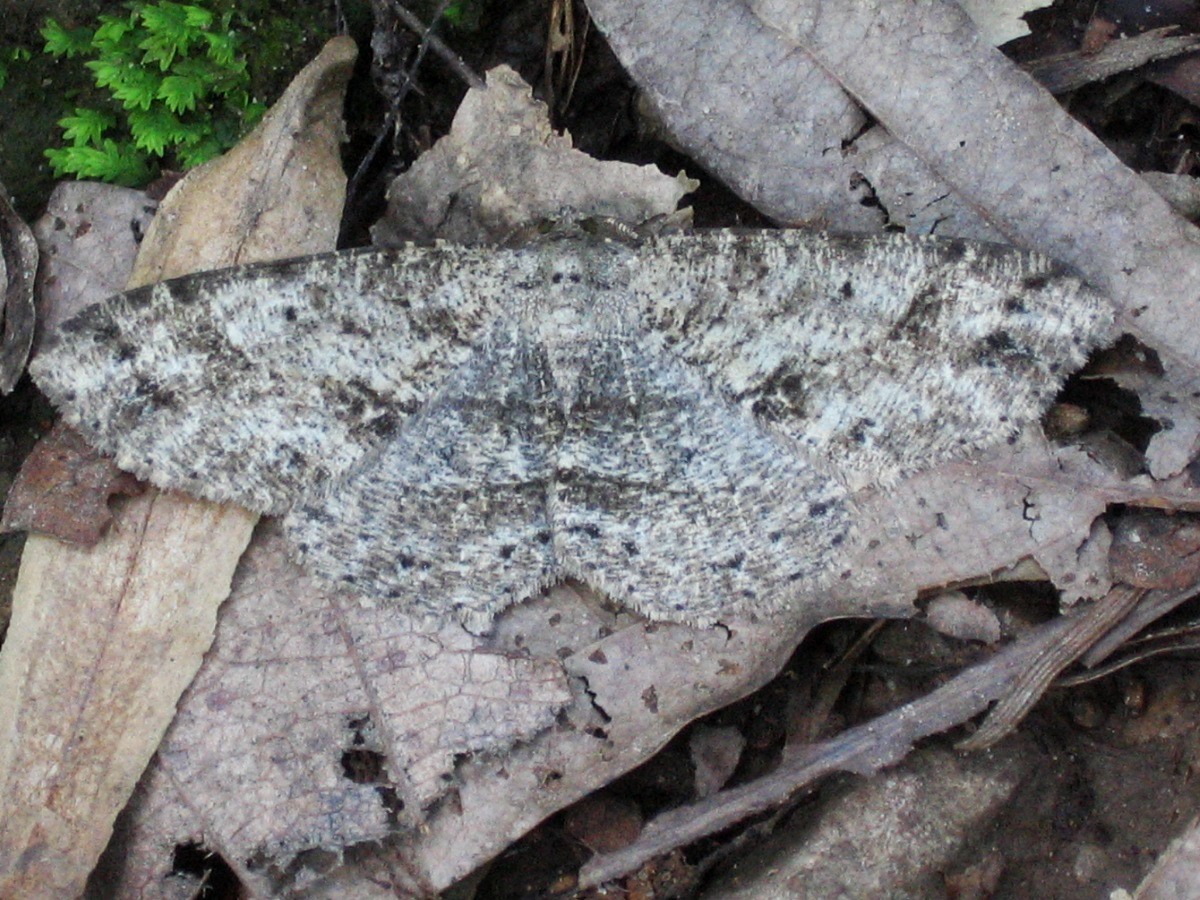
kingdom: Animalia
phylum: Arthropoda
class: Insecta
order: Lepidoptera
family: Geometridae
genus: Melanolophia
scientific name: Melanolophia canadaria
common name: Canadian melanolophia
